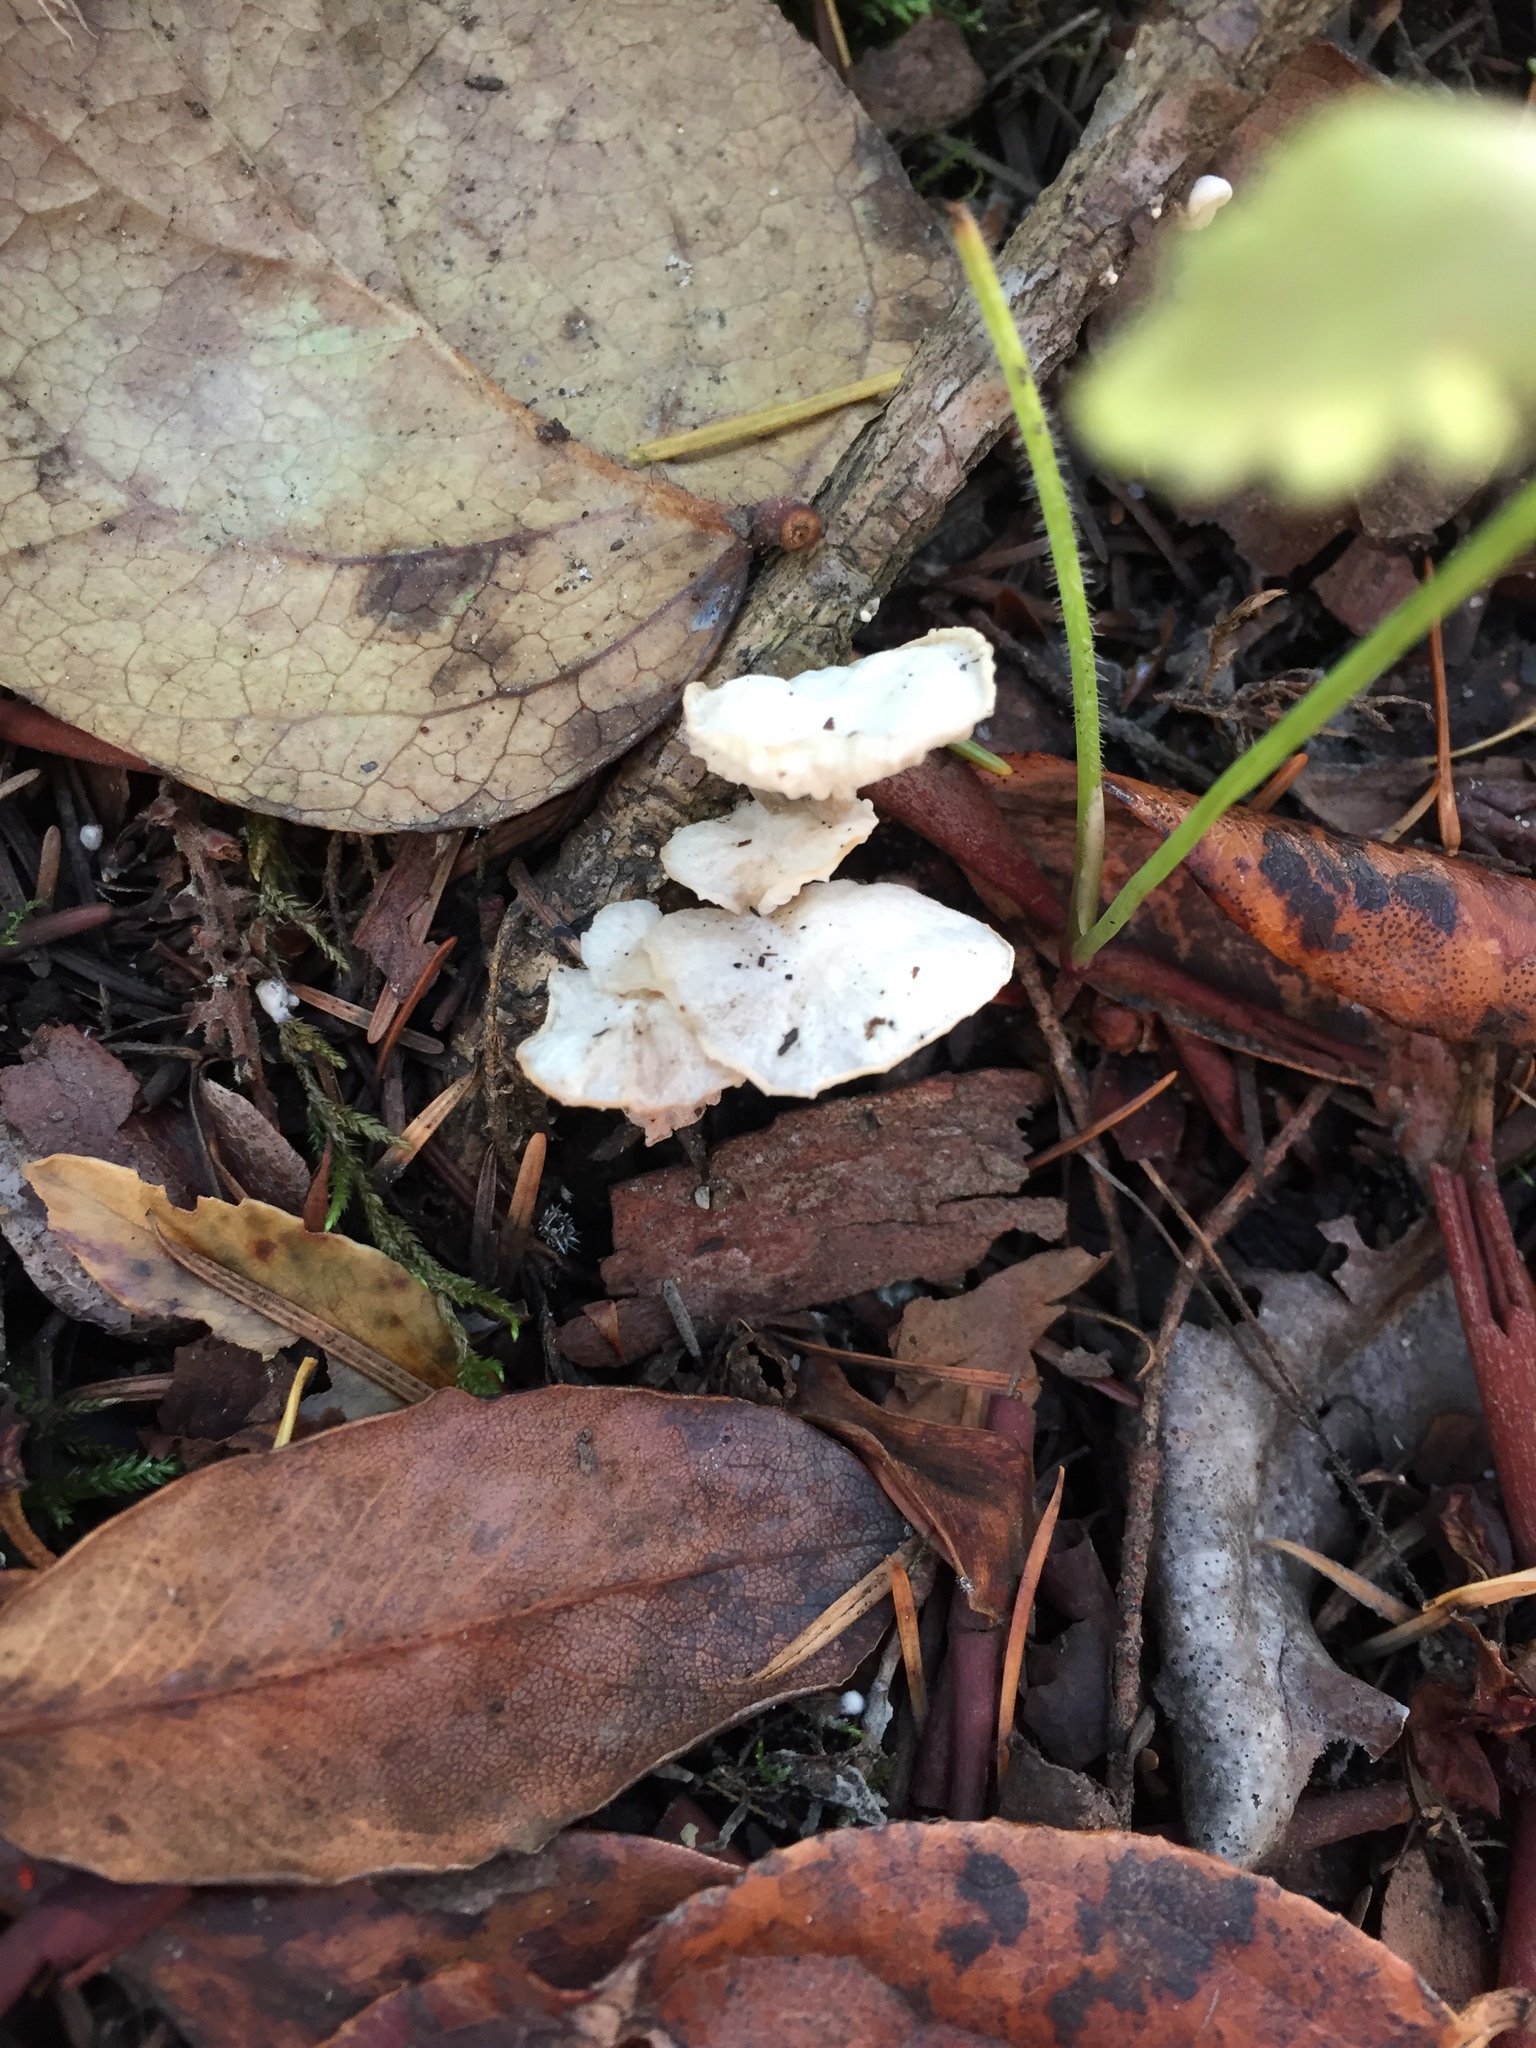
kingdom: Fungi
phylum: Basidiomycota
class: Agaricomycetes
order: Agaricales
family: Omphalotaceae
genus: Marasmiellus
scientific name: Marasmiellus candidus
